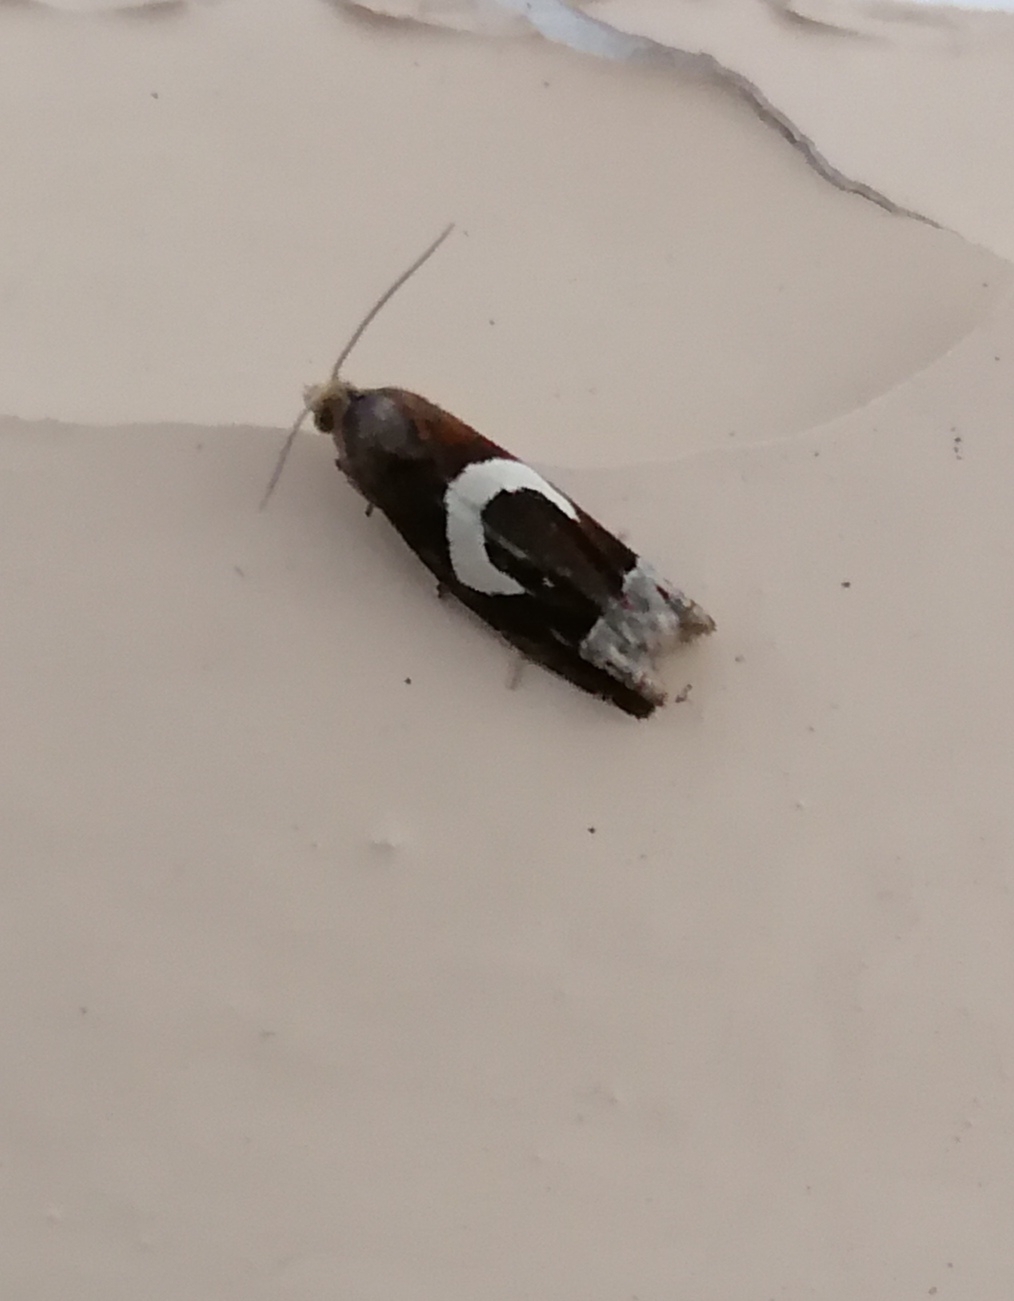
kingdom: Animalia
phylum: Arthropoda
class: Insecta
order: Lepidoptera
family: Tortricidae
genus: Epiblema
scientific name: Epiblema foenella
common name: White-foot bell
